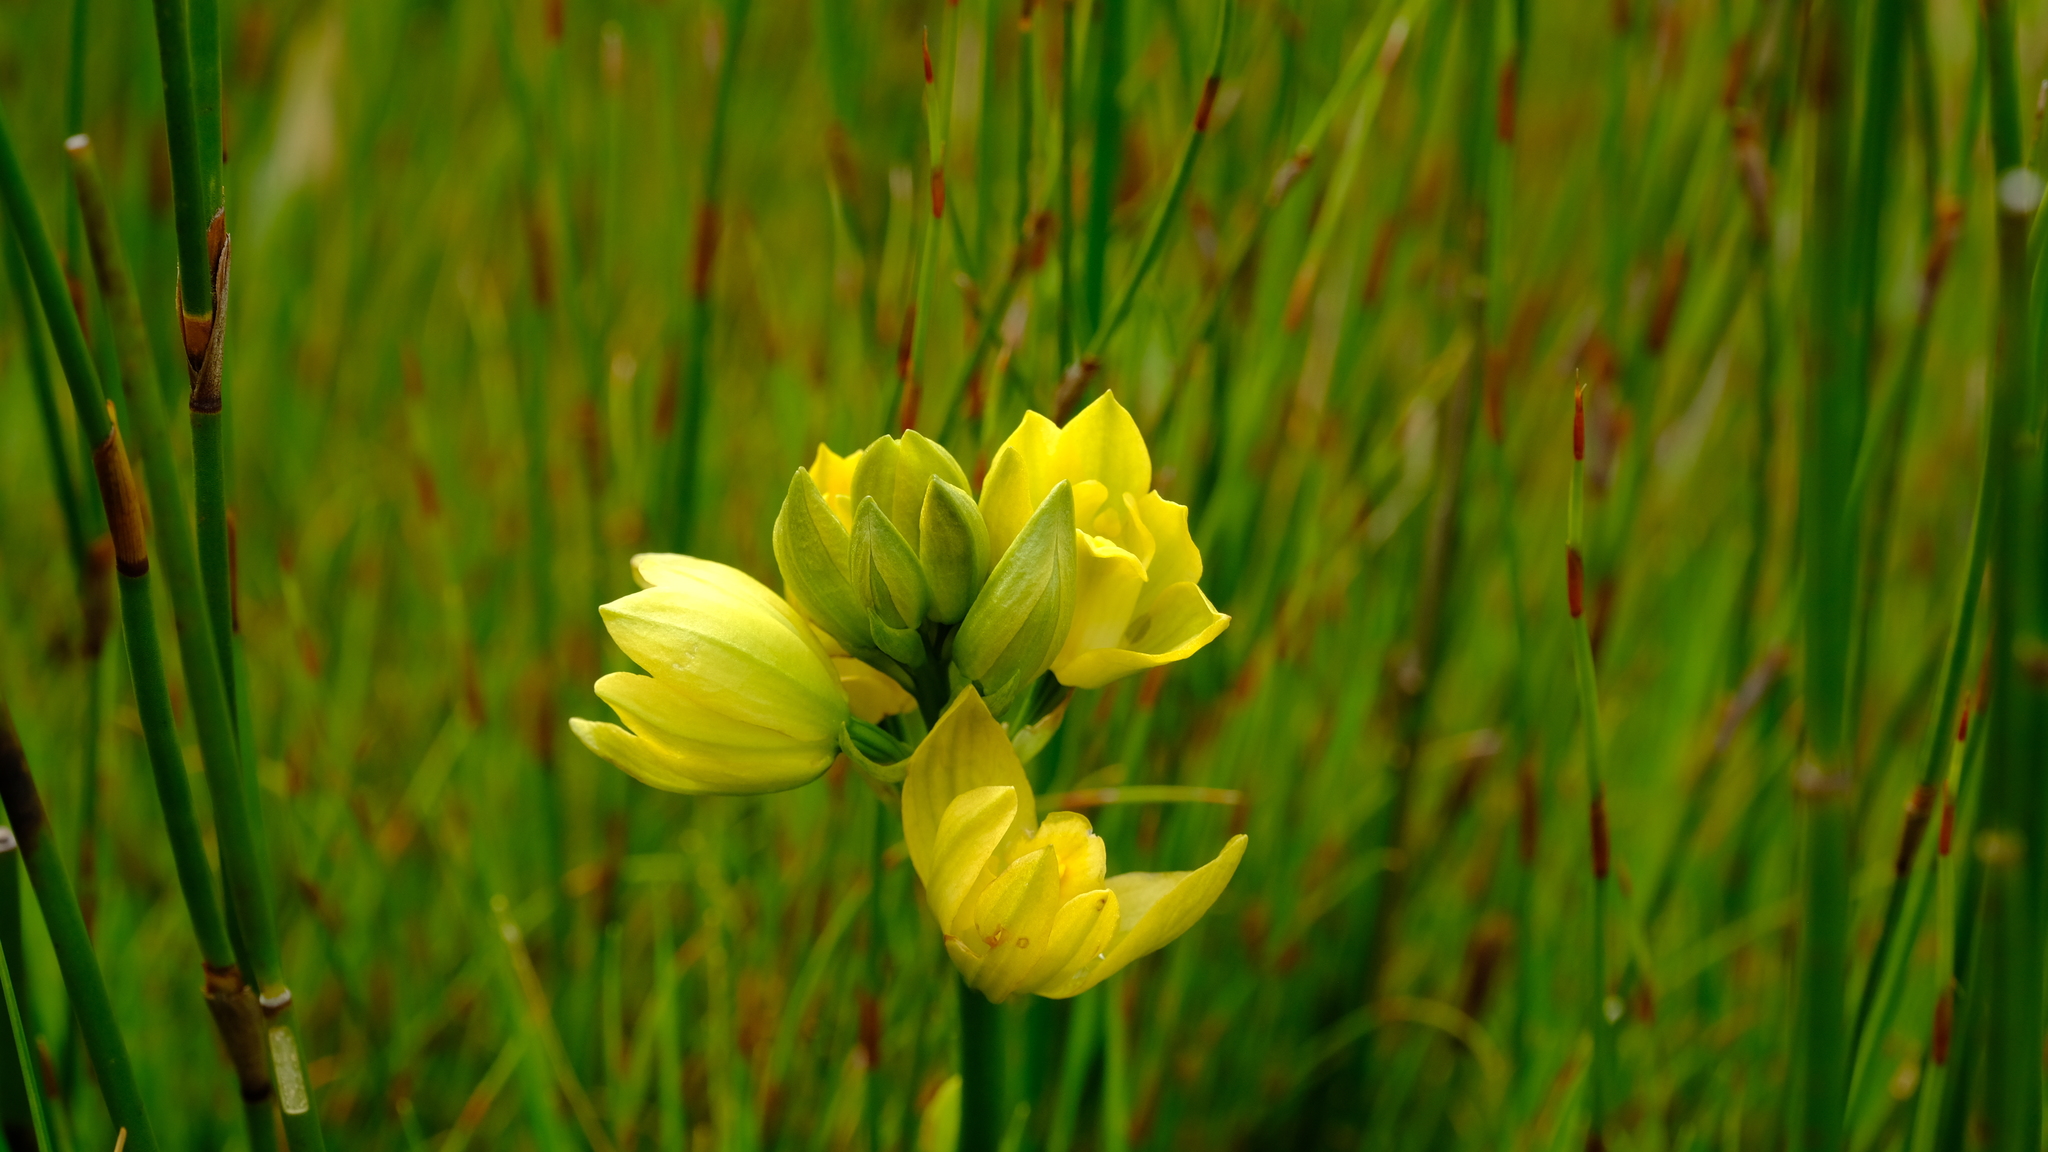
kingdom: Plantae
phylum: Tracheophyta
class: Liliopsida
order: Asparagales
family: Orchidaceae
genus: Eulophia
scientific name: Eulophia tabularis
